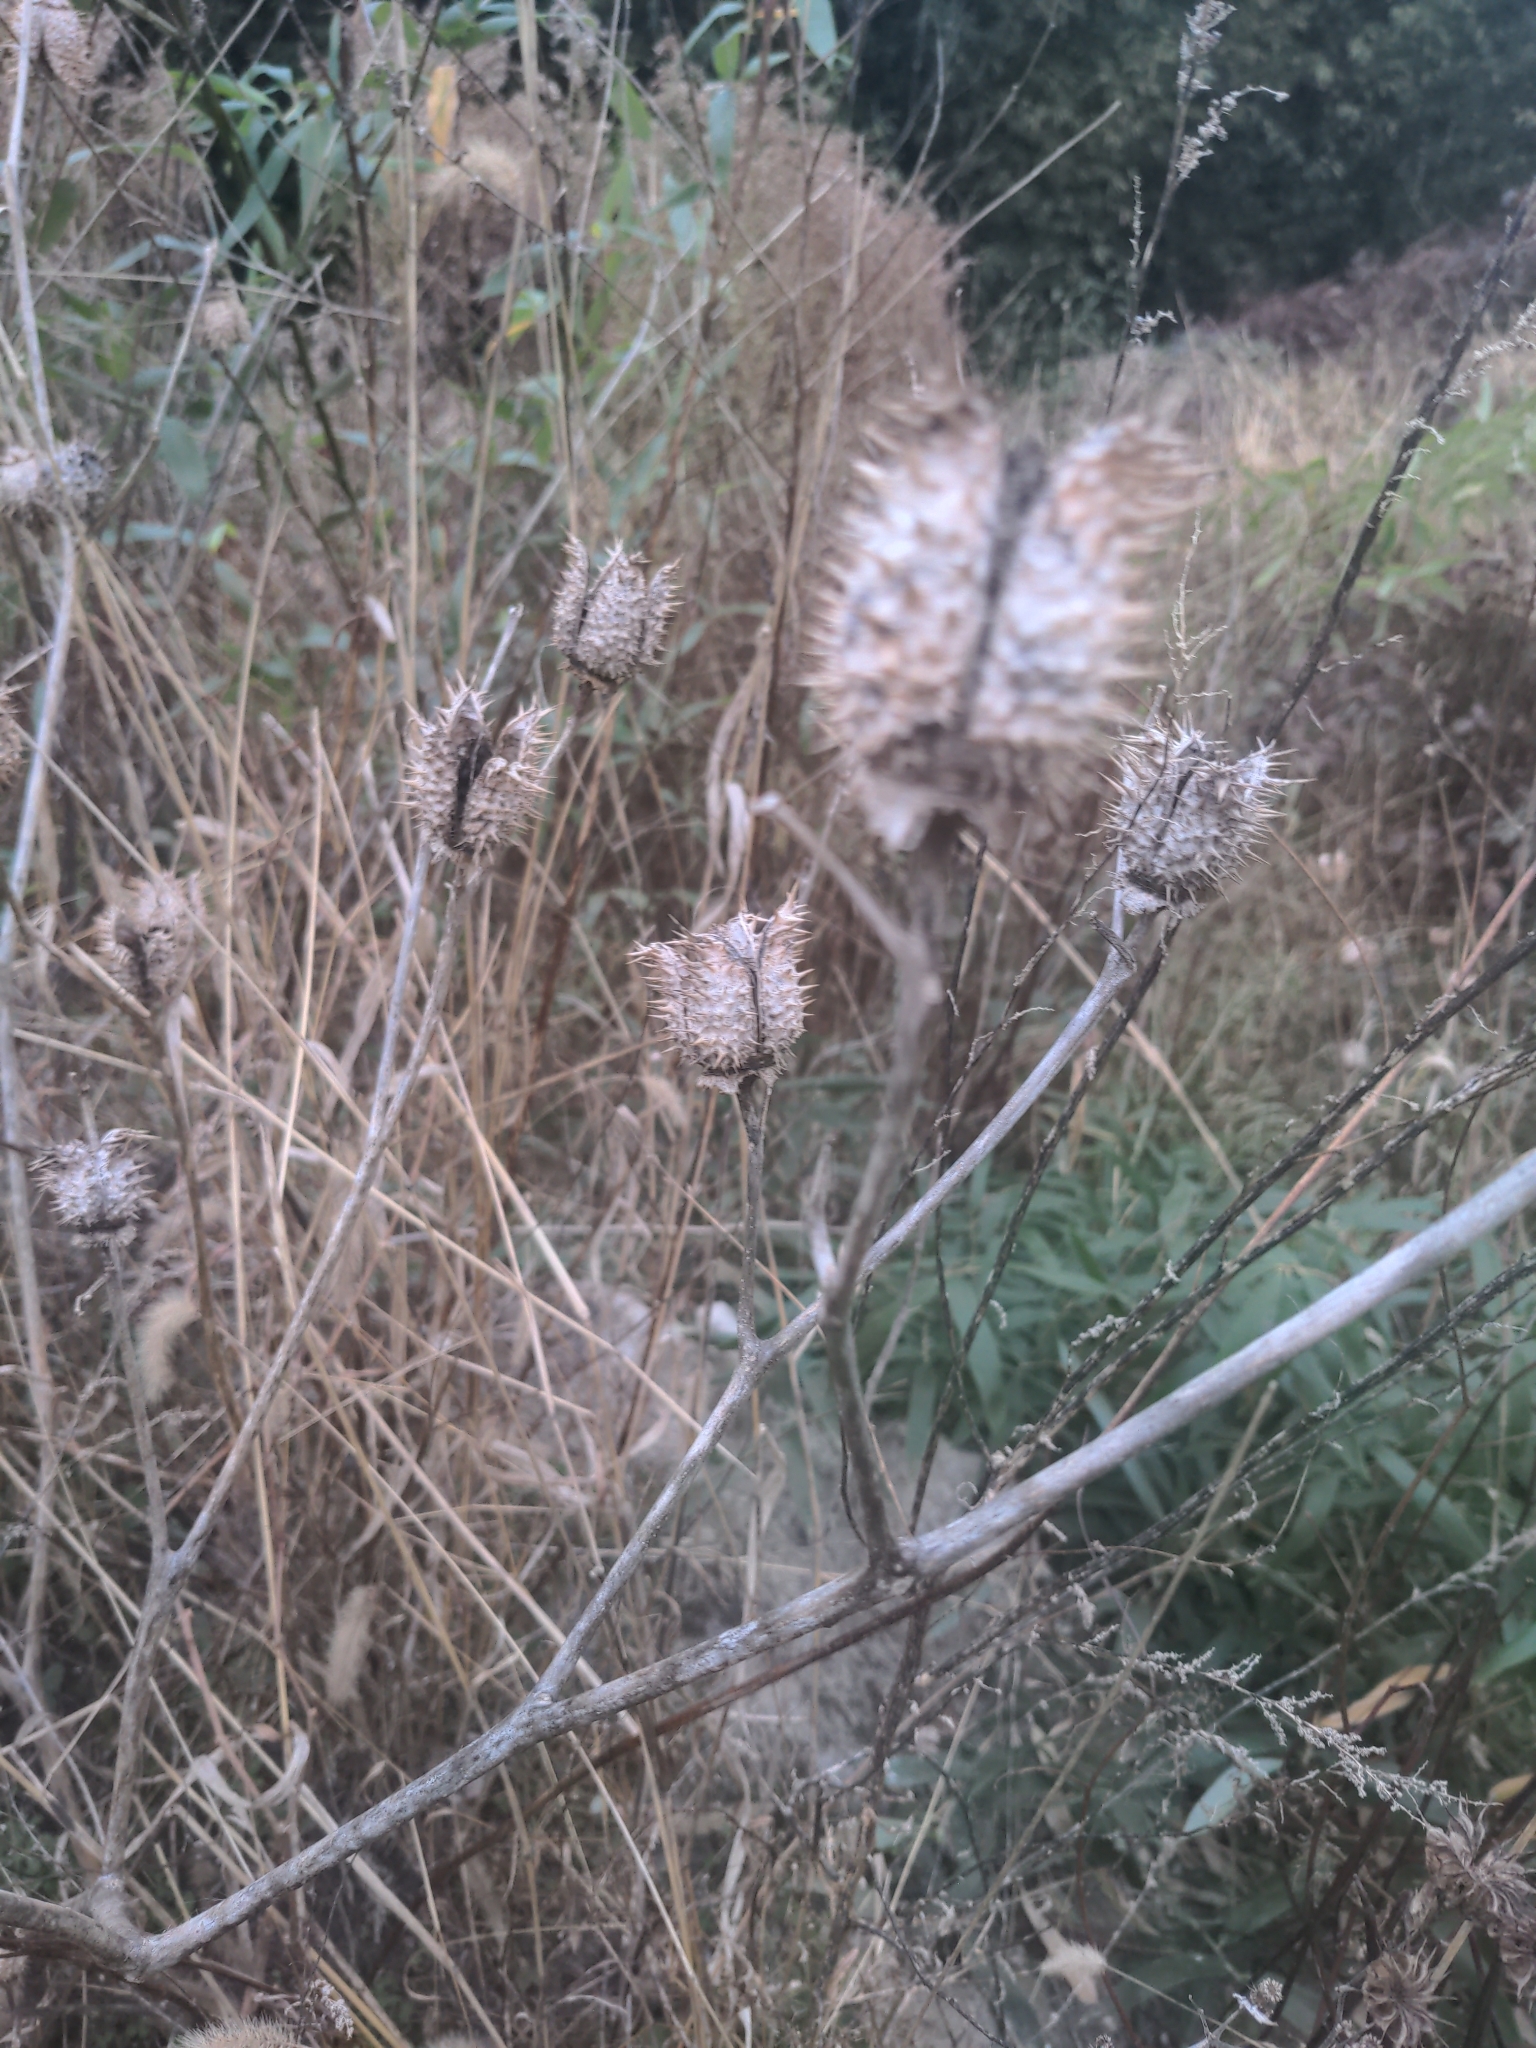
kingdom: Plantae
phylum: Tracheophyta
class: Magnoliopsida
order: Solanales
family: Solanaceae
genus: Datura
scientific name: Datura stramonium
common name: Thorn-apple
